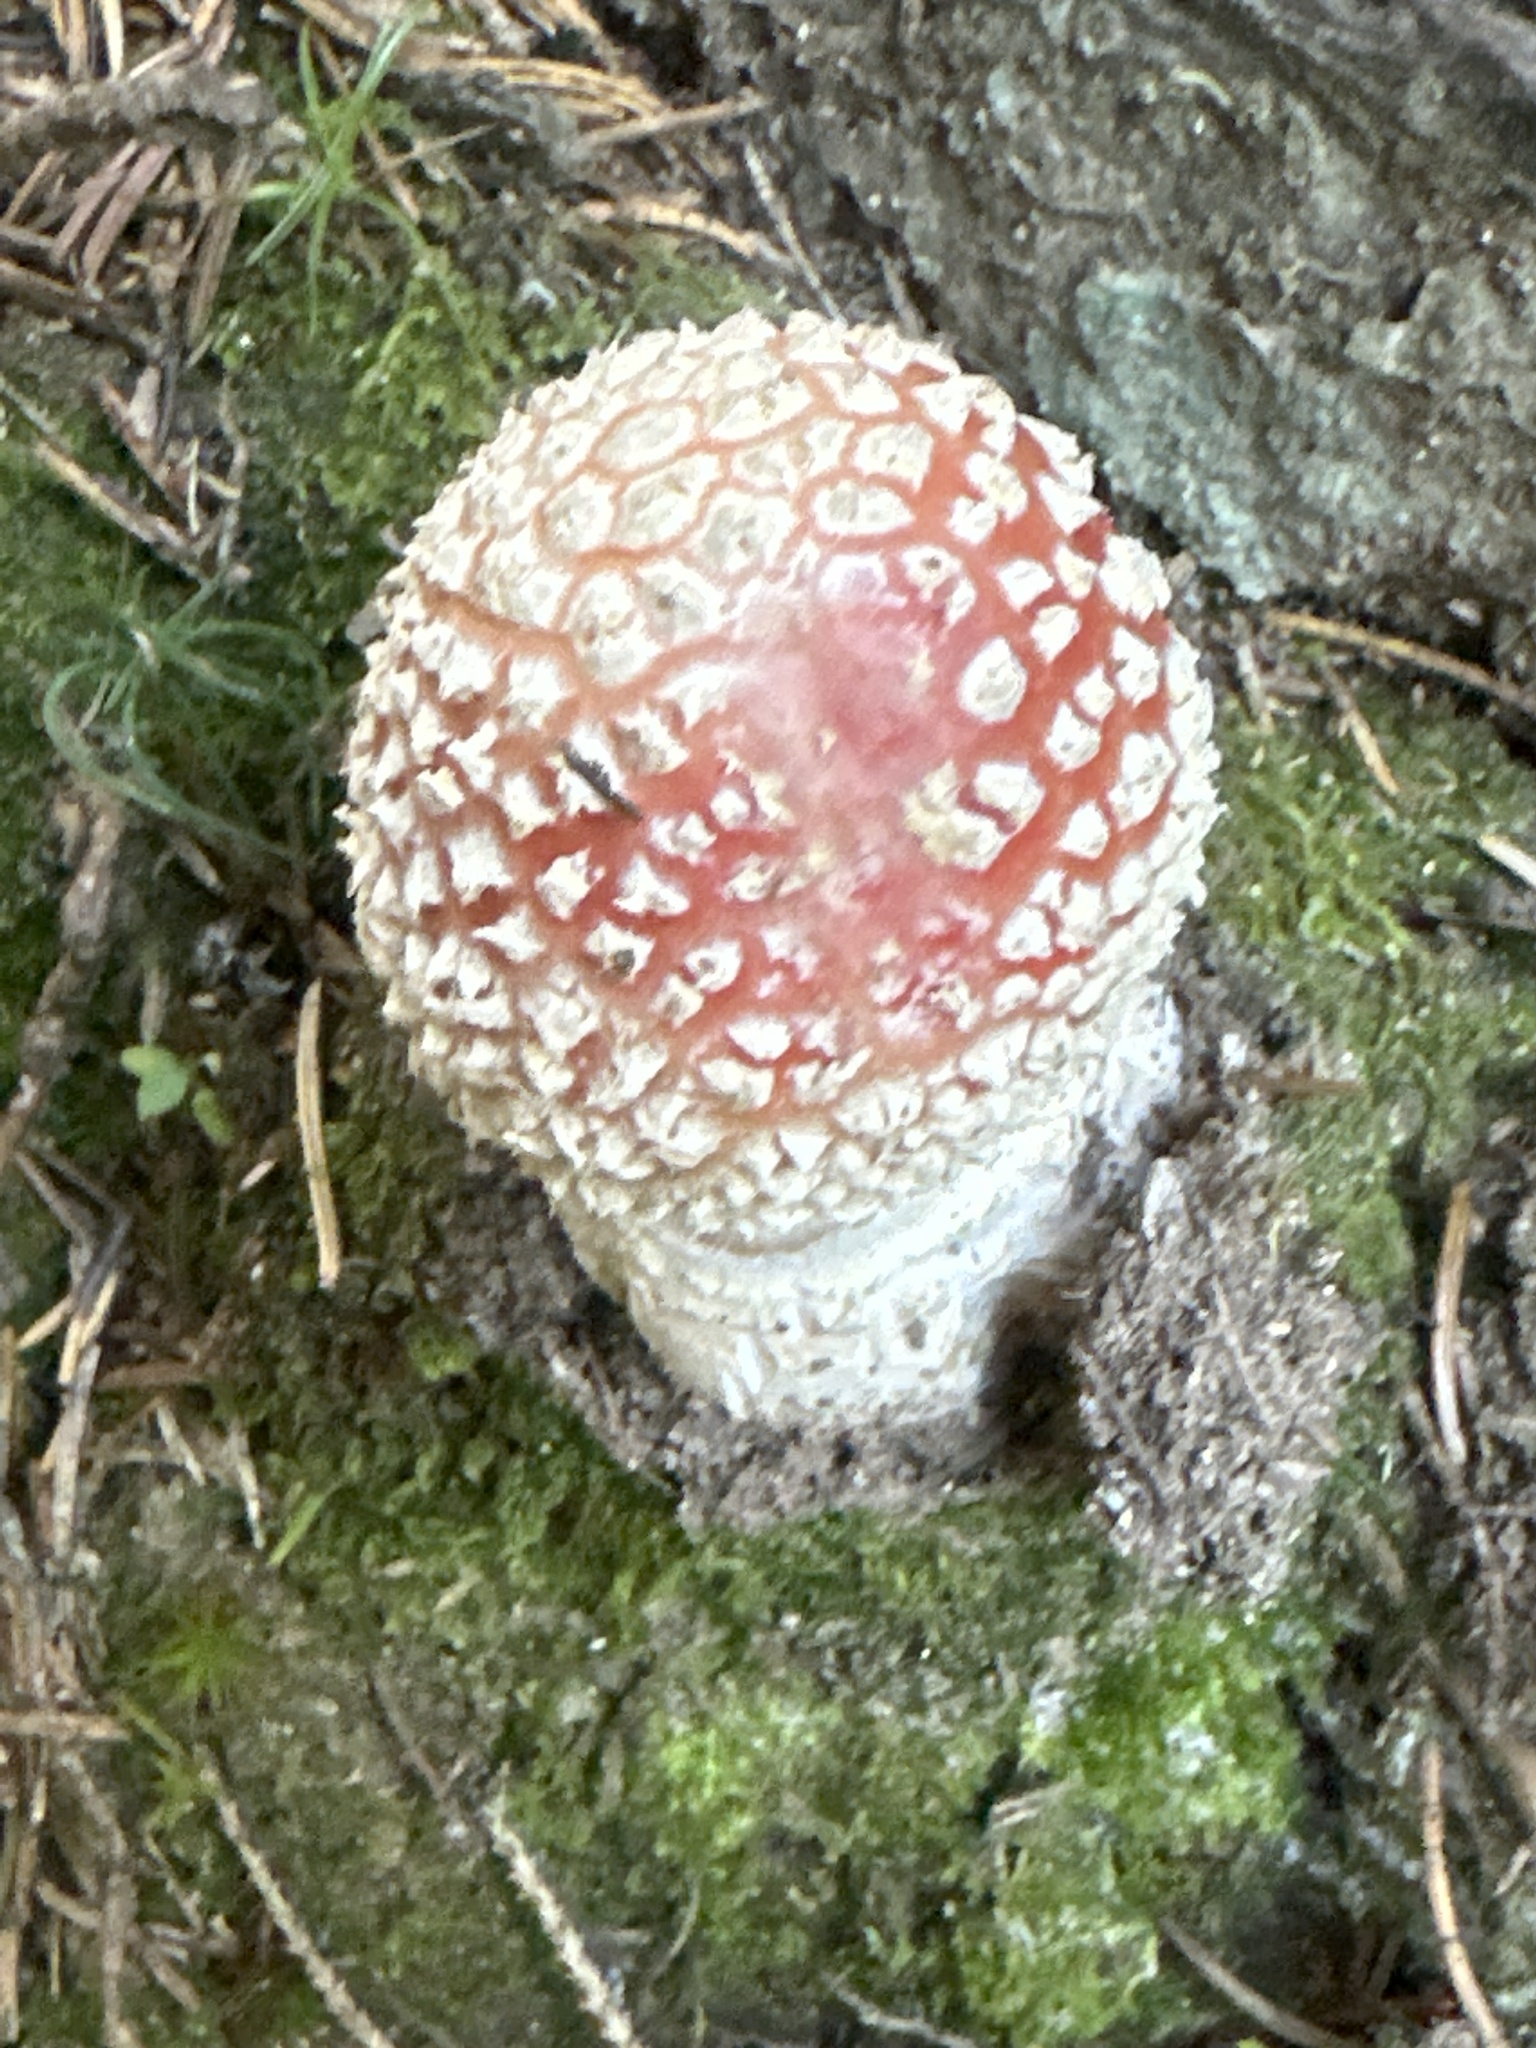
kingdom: Fungi
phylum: Basidiomycota
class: Agaricomycetes
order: Agaricales
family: Amanitaceae
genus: Amanita
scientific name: Amanita muscaria
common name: Fly agaric
